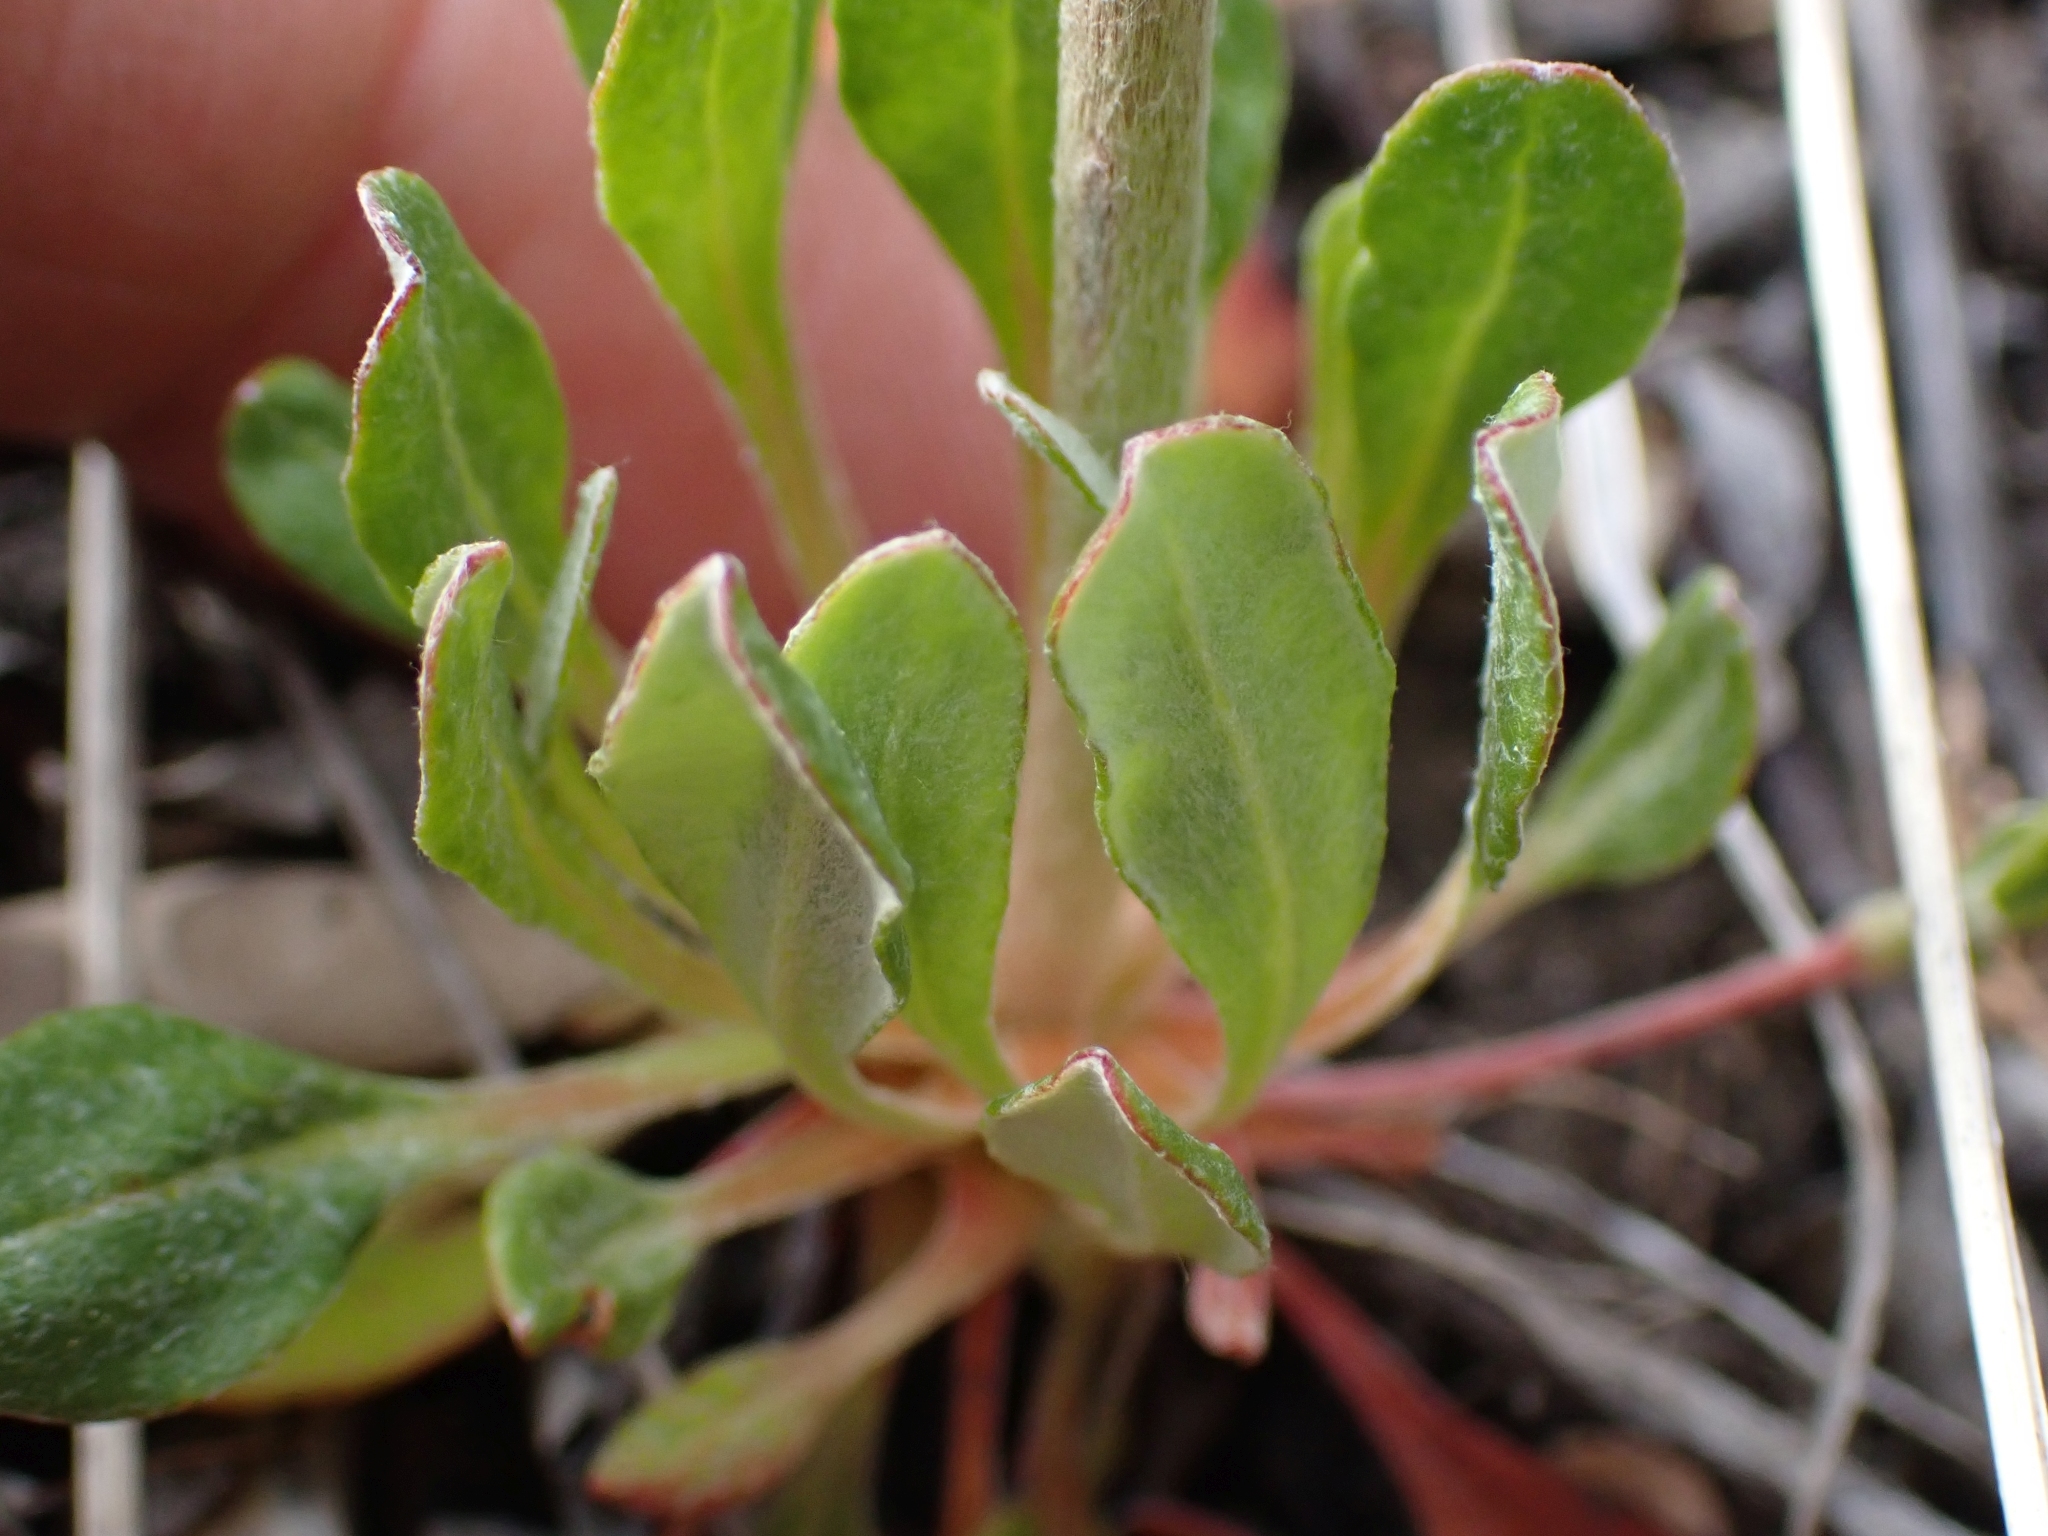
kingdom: Plantae
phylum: Tracheophyta
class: Magnoliopsida
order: Caryophyllales
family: Polygonaceae
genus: Eriogonum
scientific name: Eriogonum umbellatum
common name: Sulfur-buckwheat
